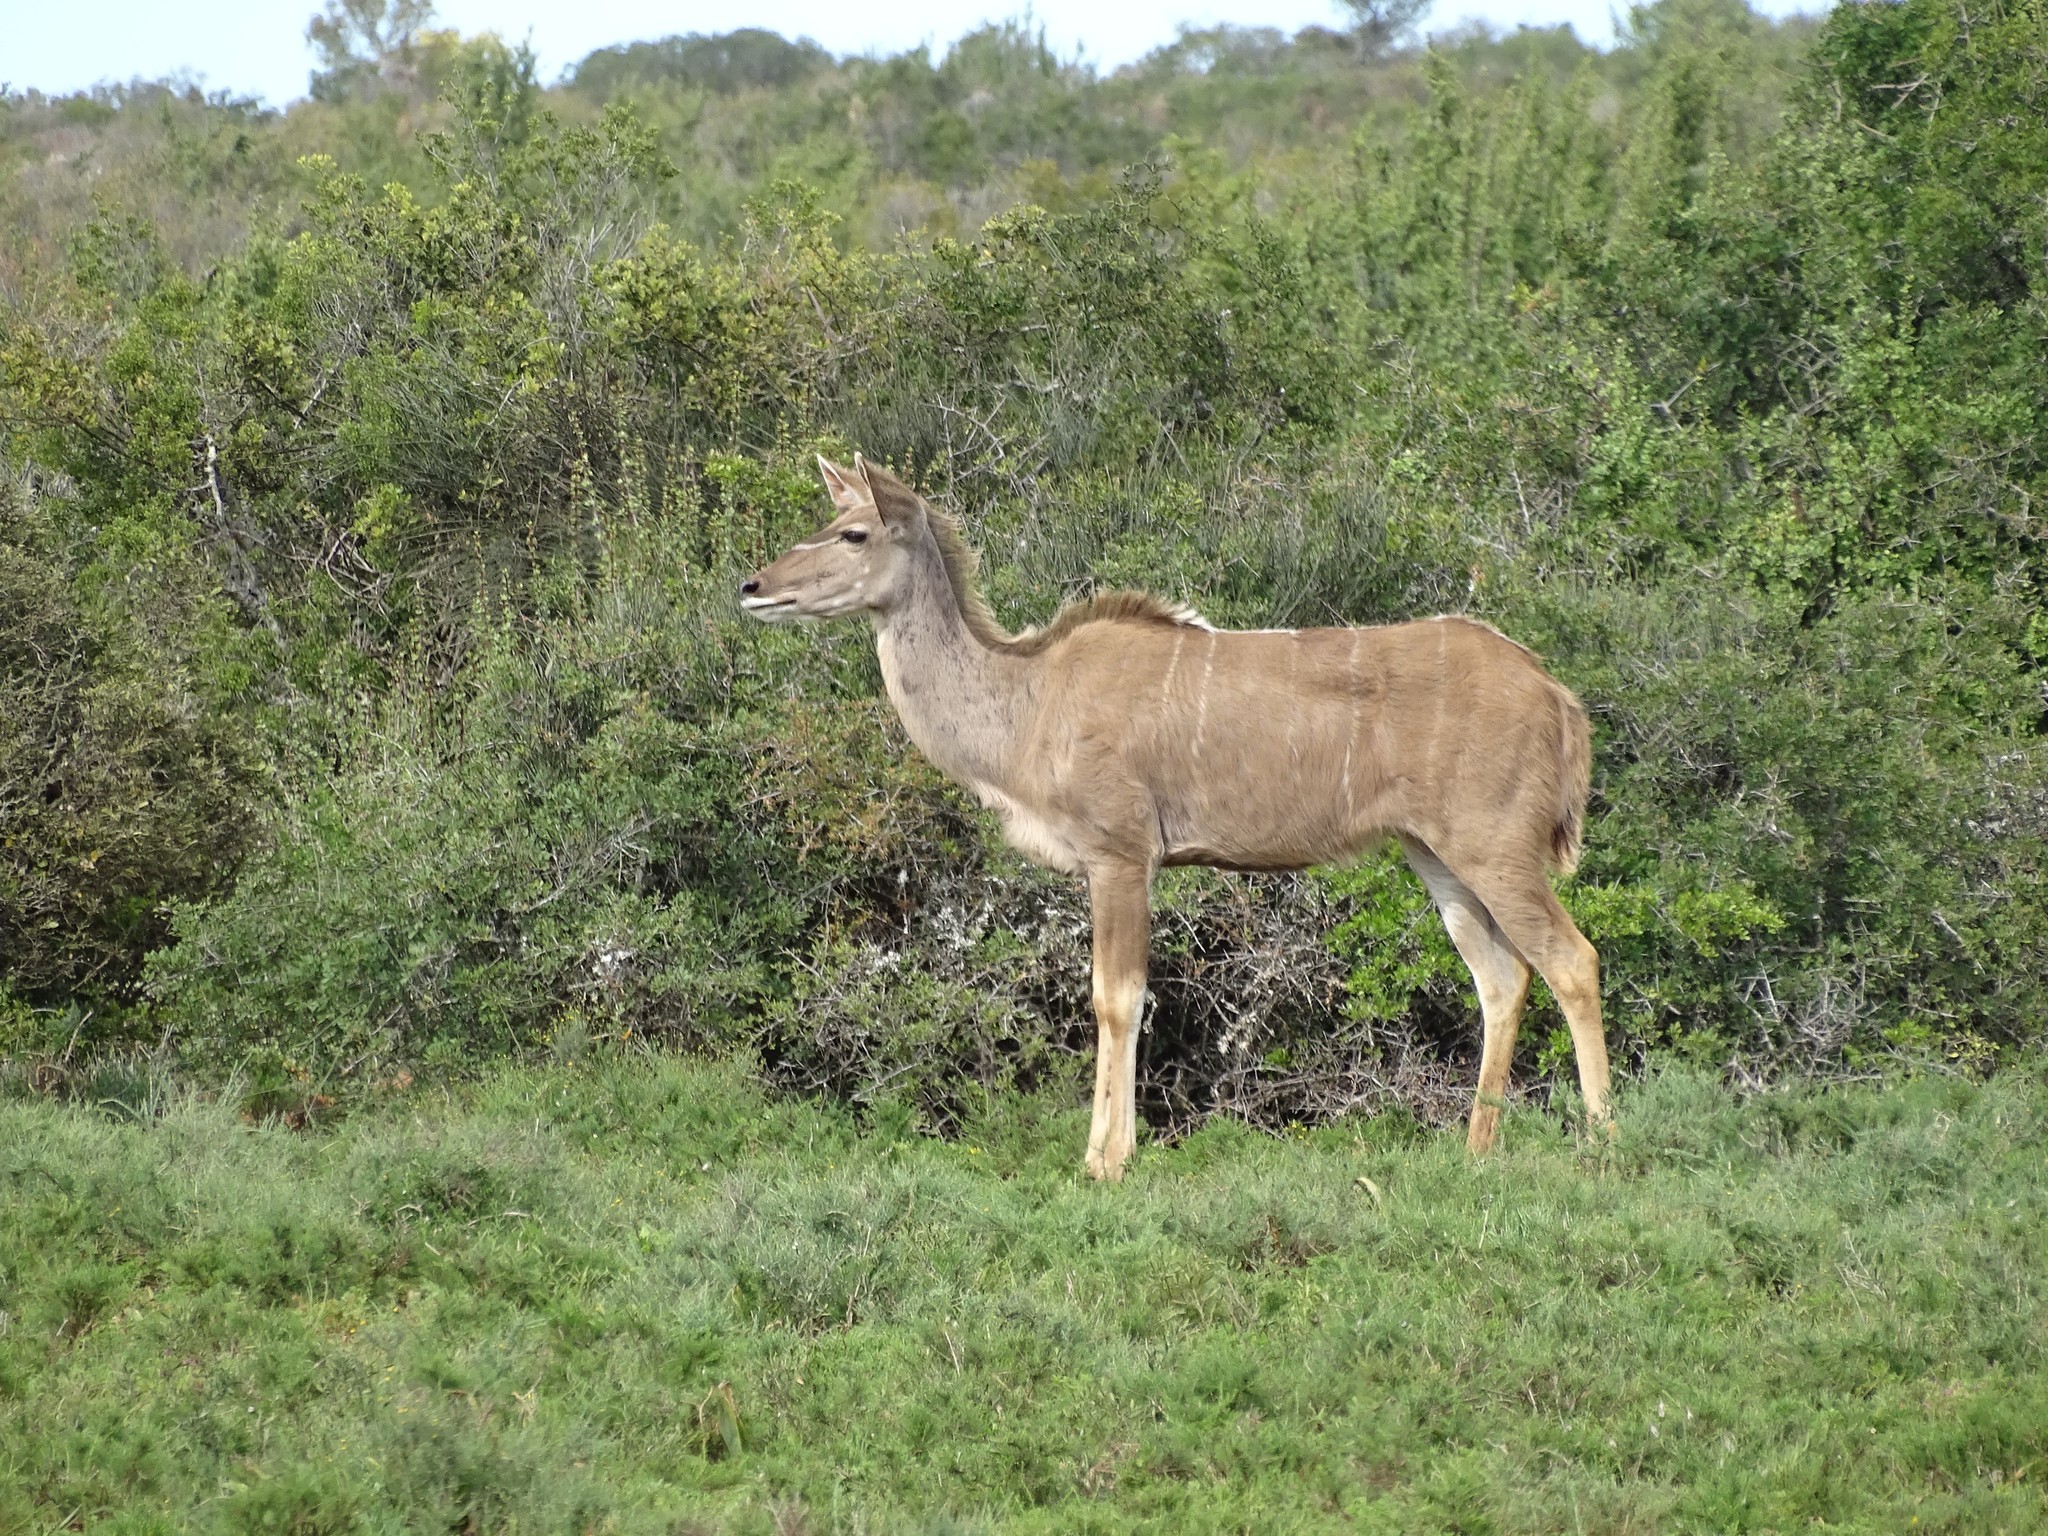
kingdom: Animalia
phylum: Chordata
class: Mammalia
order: Artiodactyla
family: Bovidae
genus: Tragelaphus
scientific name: Tragelaphus strepsiceros
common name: Greater kudu
